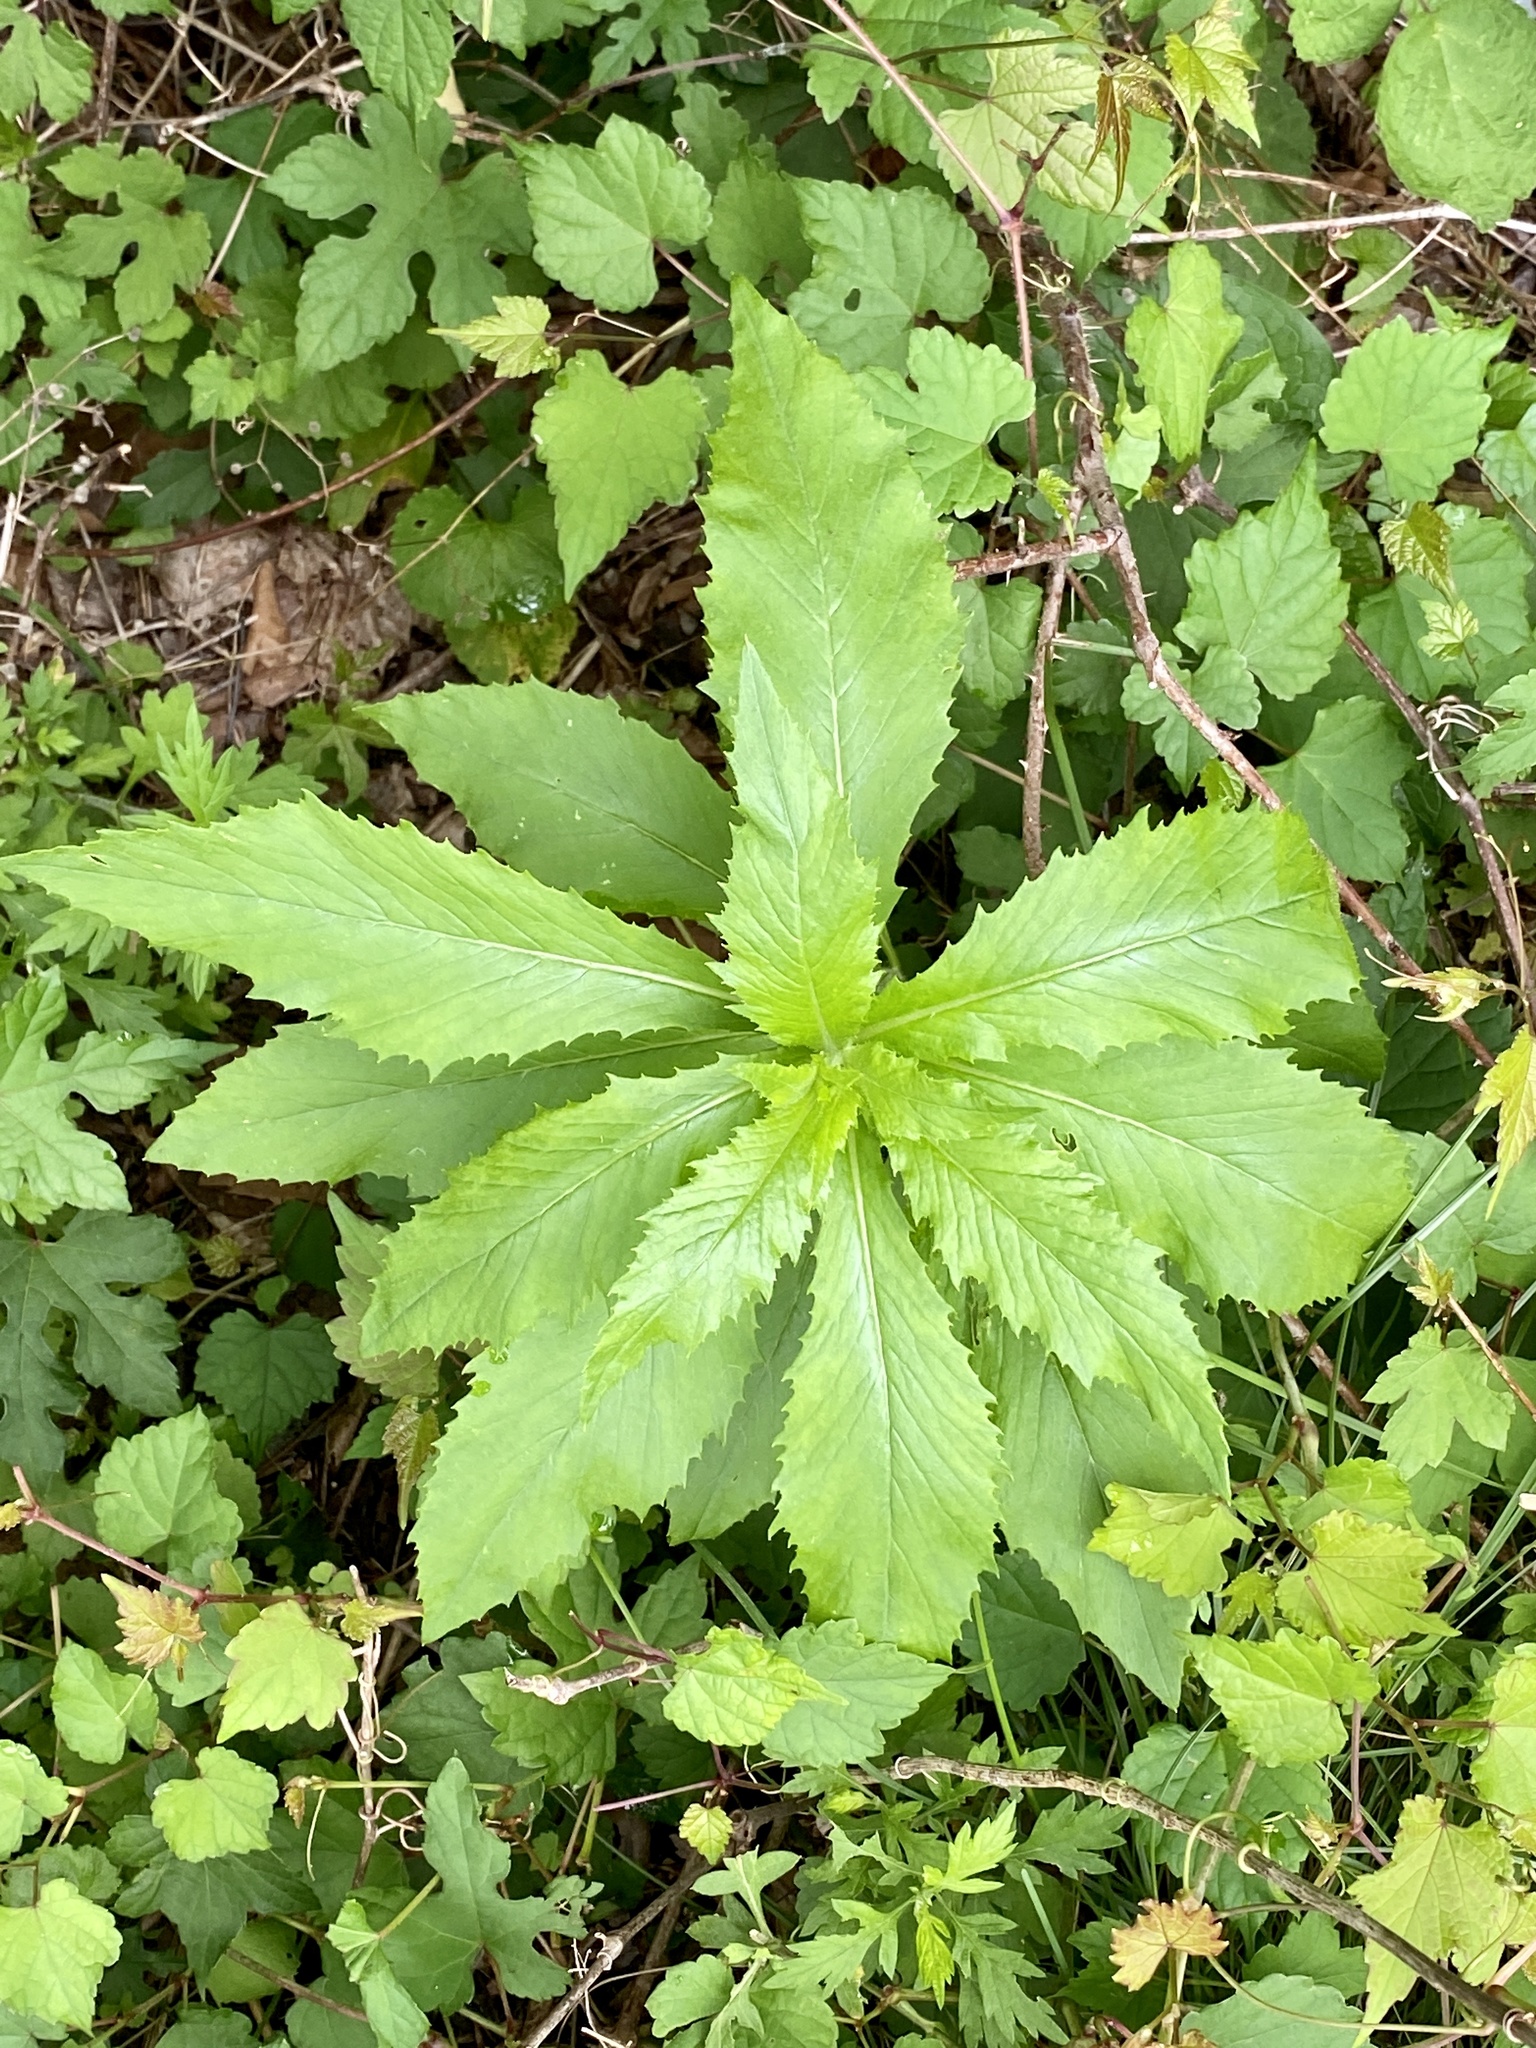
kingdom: Plantae
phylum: Tracheophyta
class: Magnoliopsida
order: Asterales
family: Asteraceae
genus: Erechtites
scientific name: Erechtites hieraciifolius
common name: American burnweed
